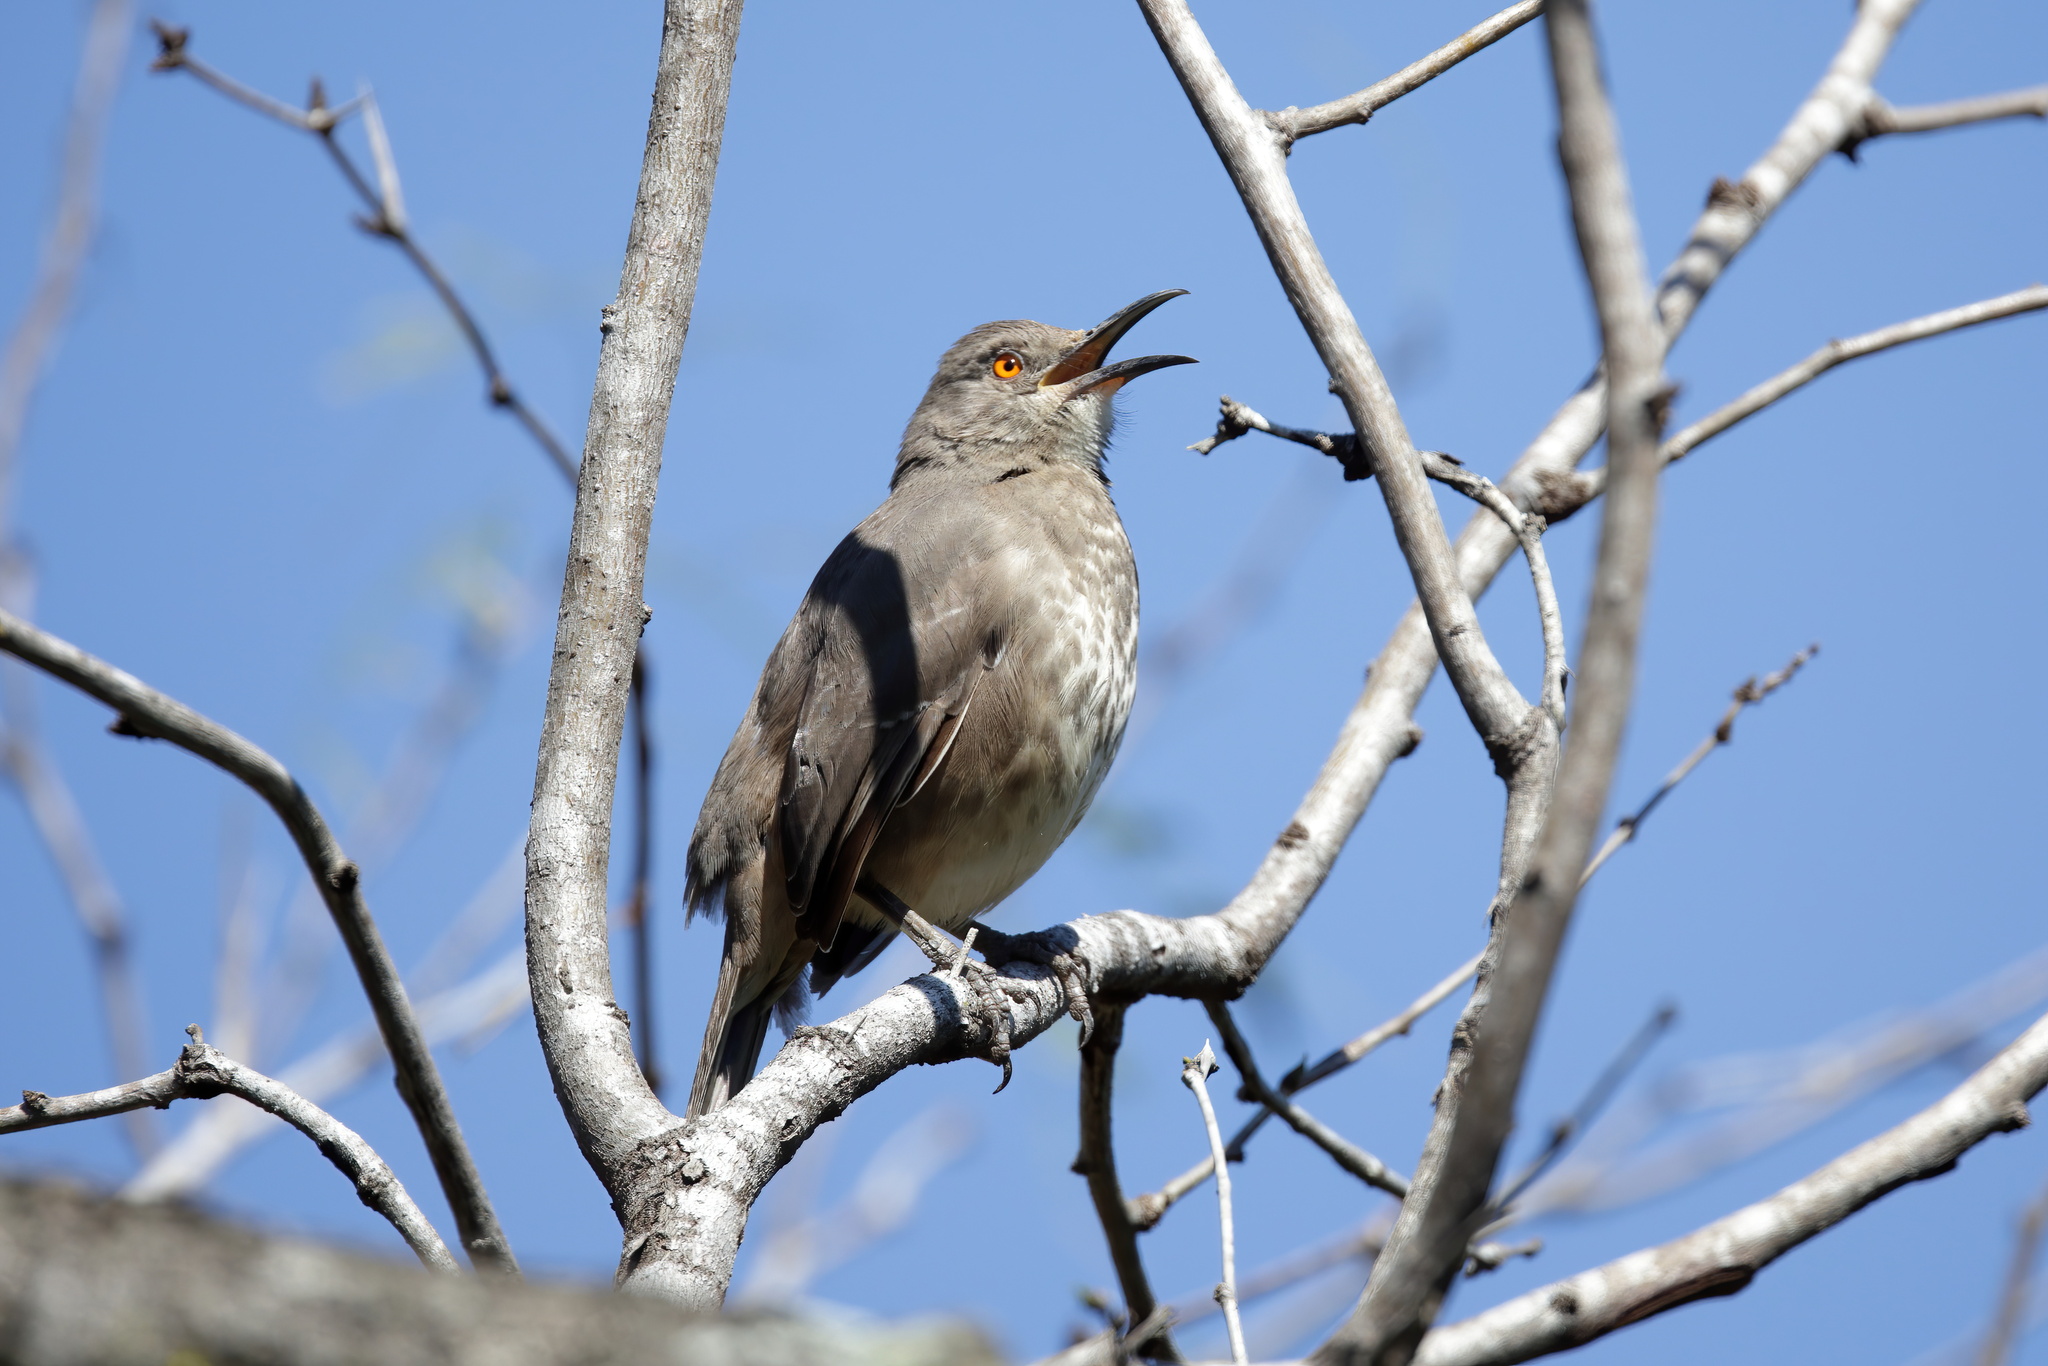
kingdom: Animalia
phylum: Chordata
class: Aves
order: Passeriformes
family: Mimidae
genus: Toxostoma
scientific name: Toxostoma curvirostre
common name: Curve-billed thrasher
